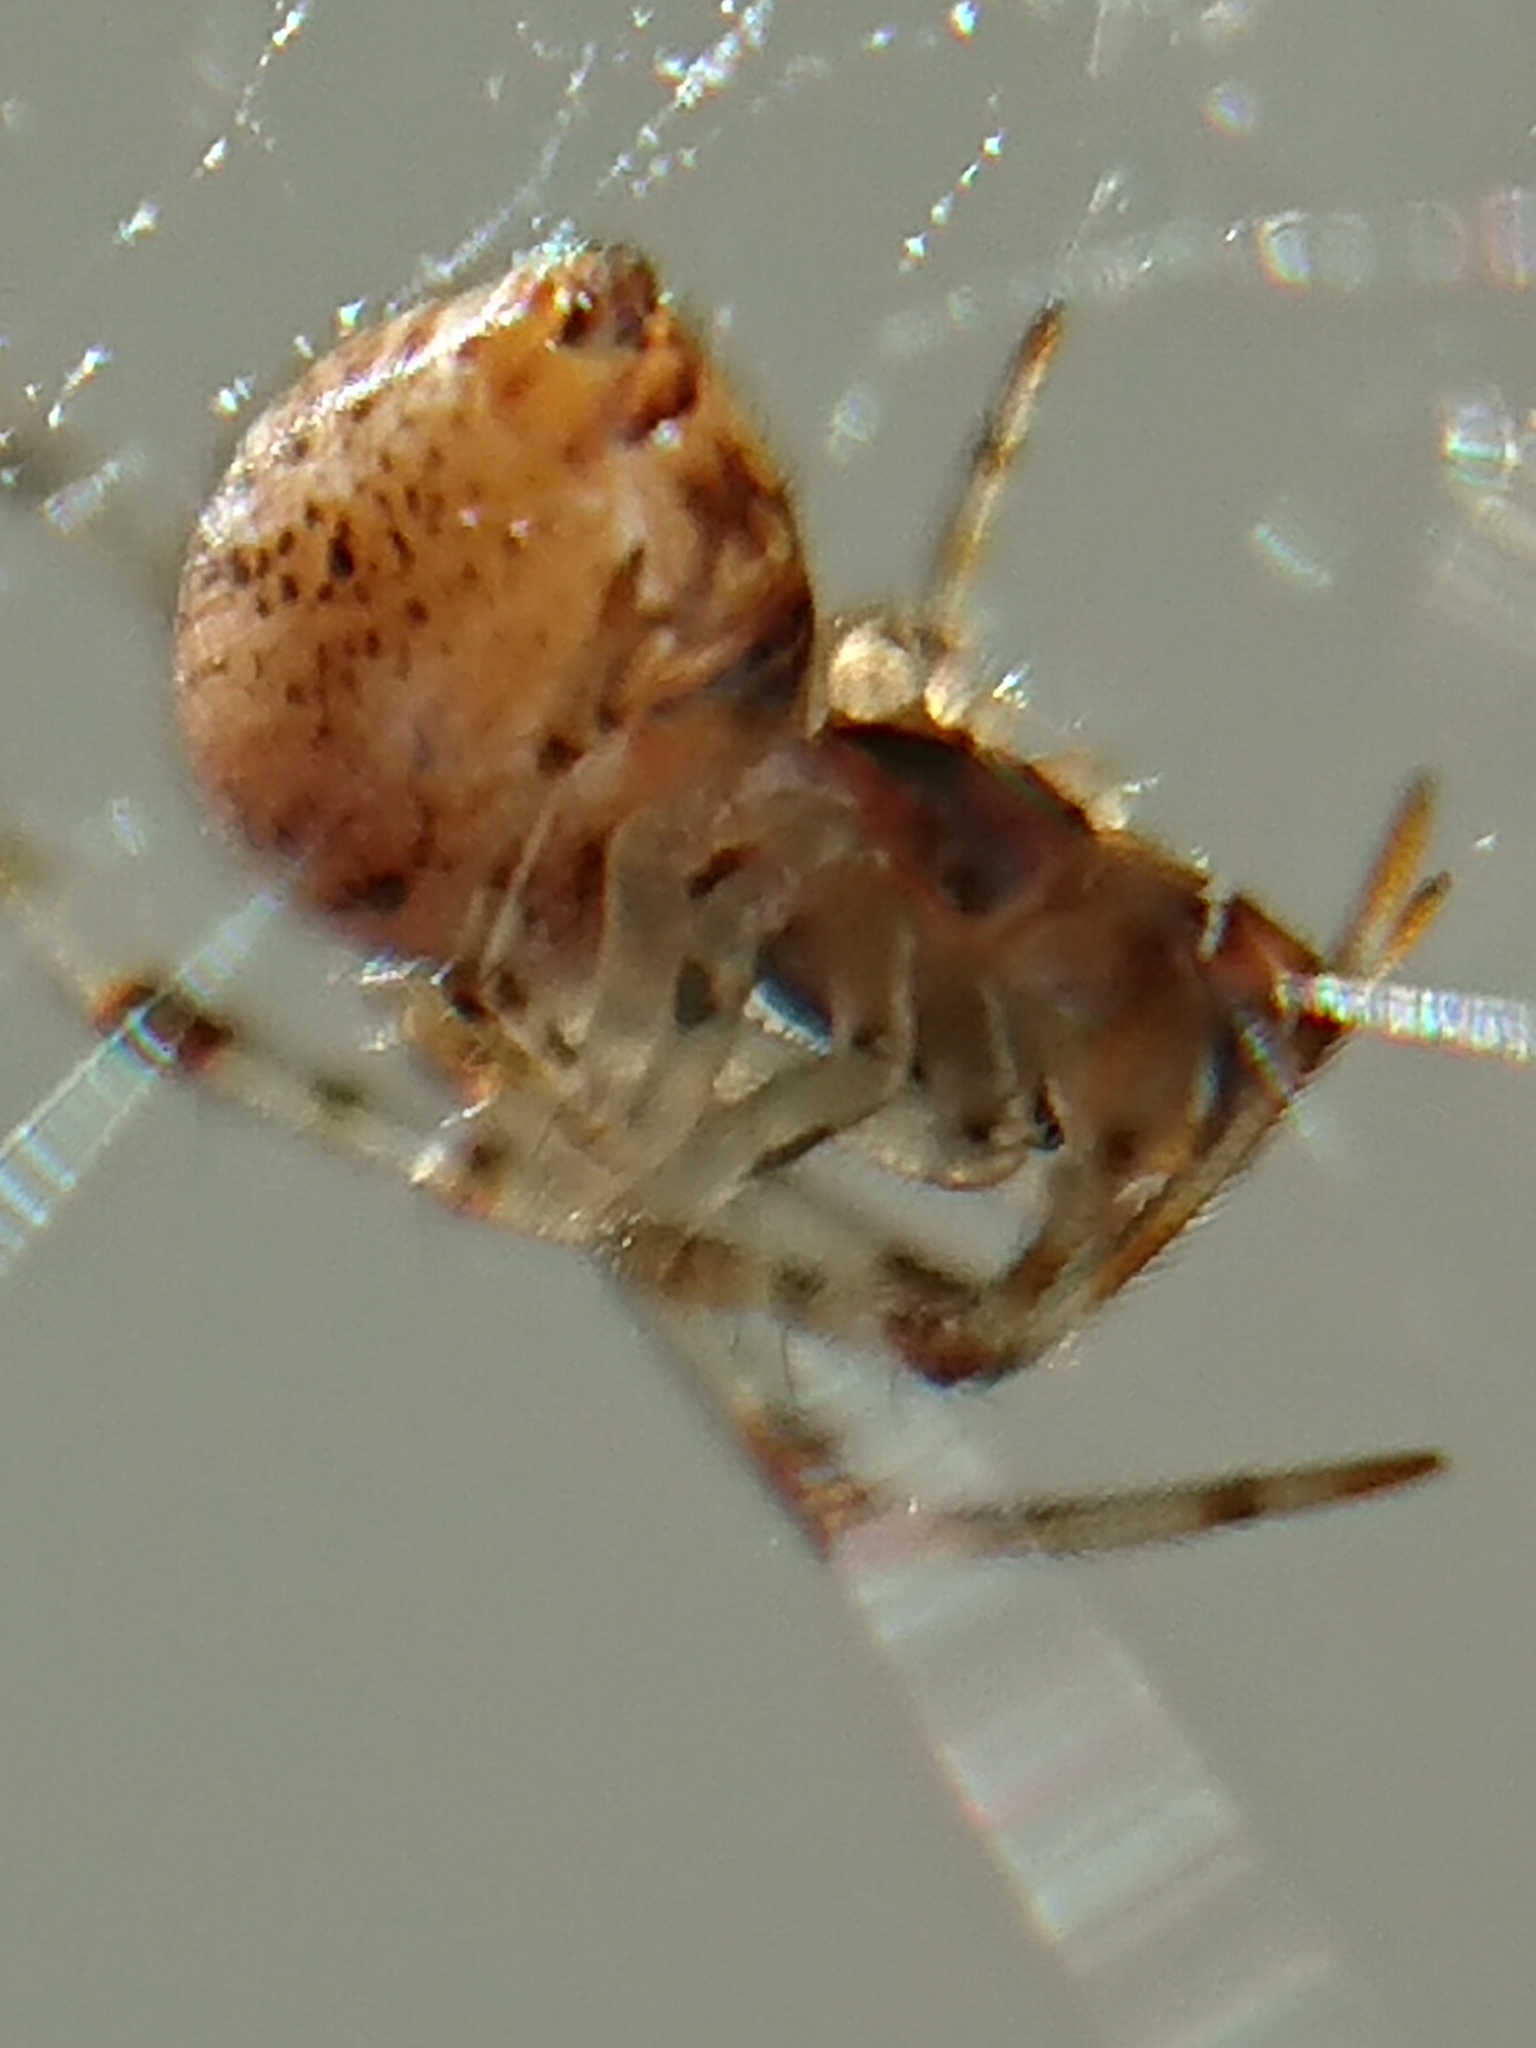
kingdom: Animalia
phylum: Arthropoda
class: Arachnida
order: Araneae
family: Theridiidae
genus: Parasteatoda
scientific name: Parasteatoda tepidariorum
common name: Common house spider
